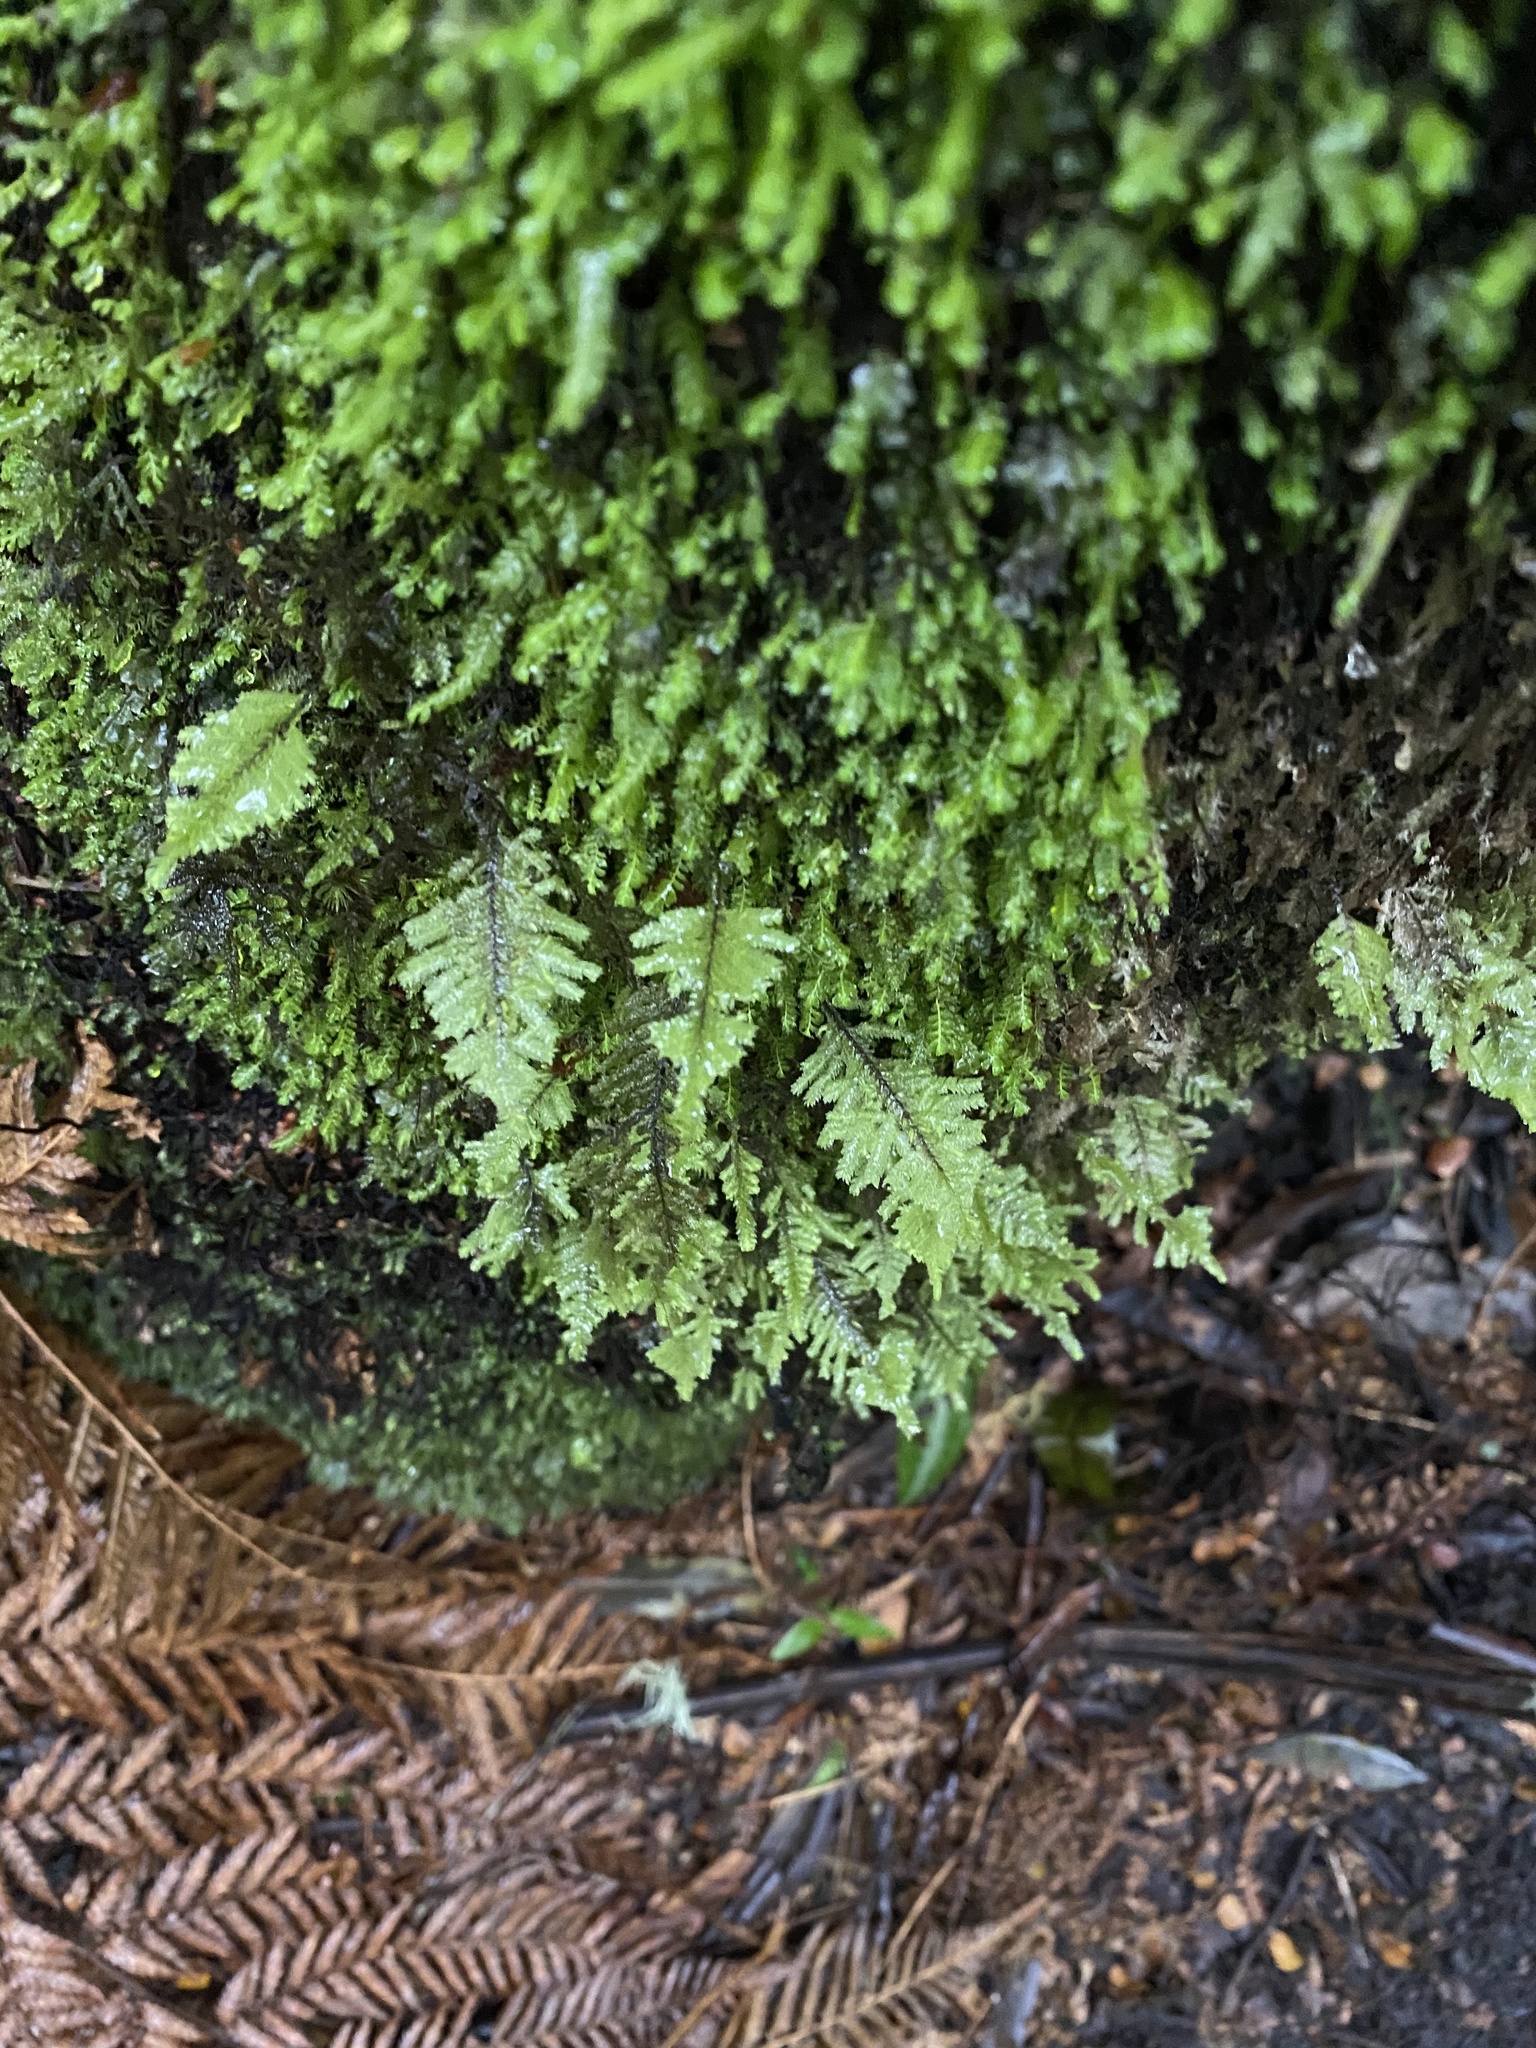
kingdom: Plantae
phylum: Bryophyta
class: Bryopsida
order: Hypopterygiales
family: Hypopterygiaceae
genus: Lopidium
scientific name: Lopidium concinnum
